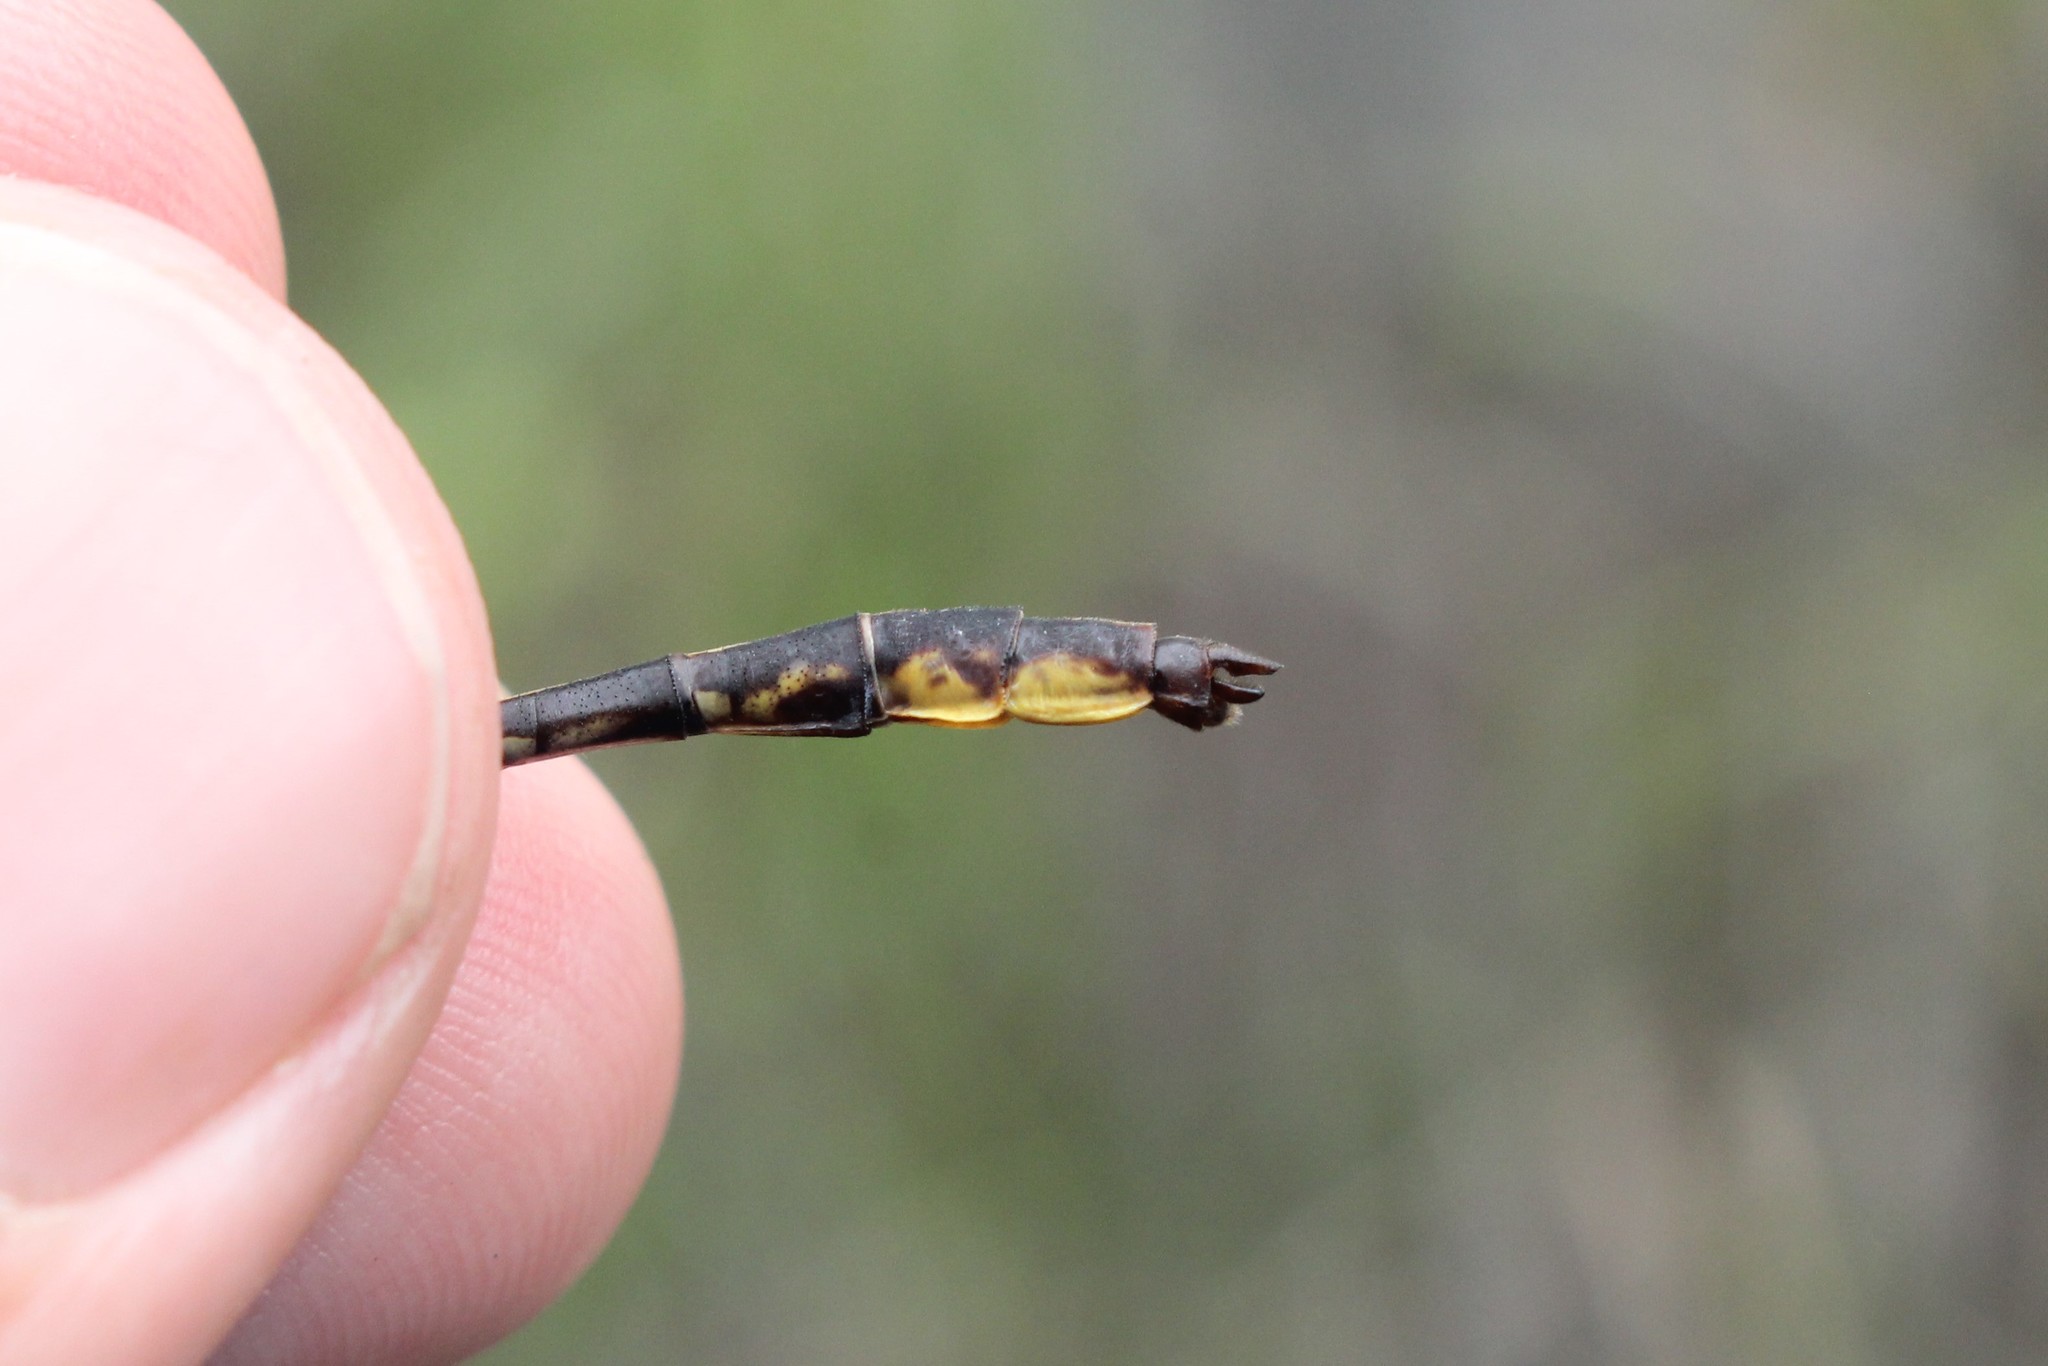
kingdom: Animalia
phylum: Arthropoda
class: Insecta
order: Odonata
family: Gomphidae
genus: Phanogomphus
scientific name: Phanogomphus exilis
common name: Lancet clubtail
